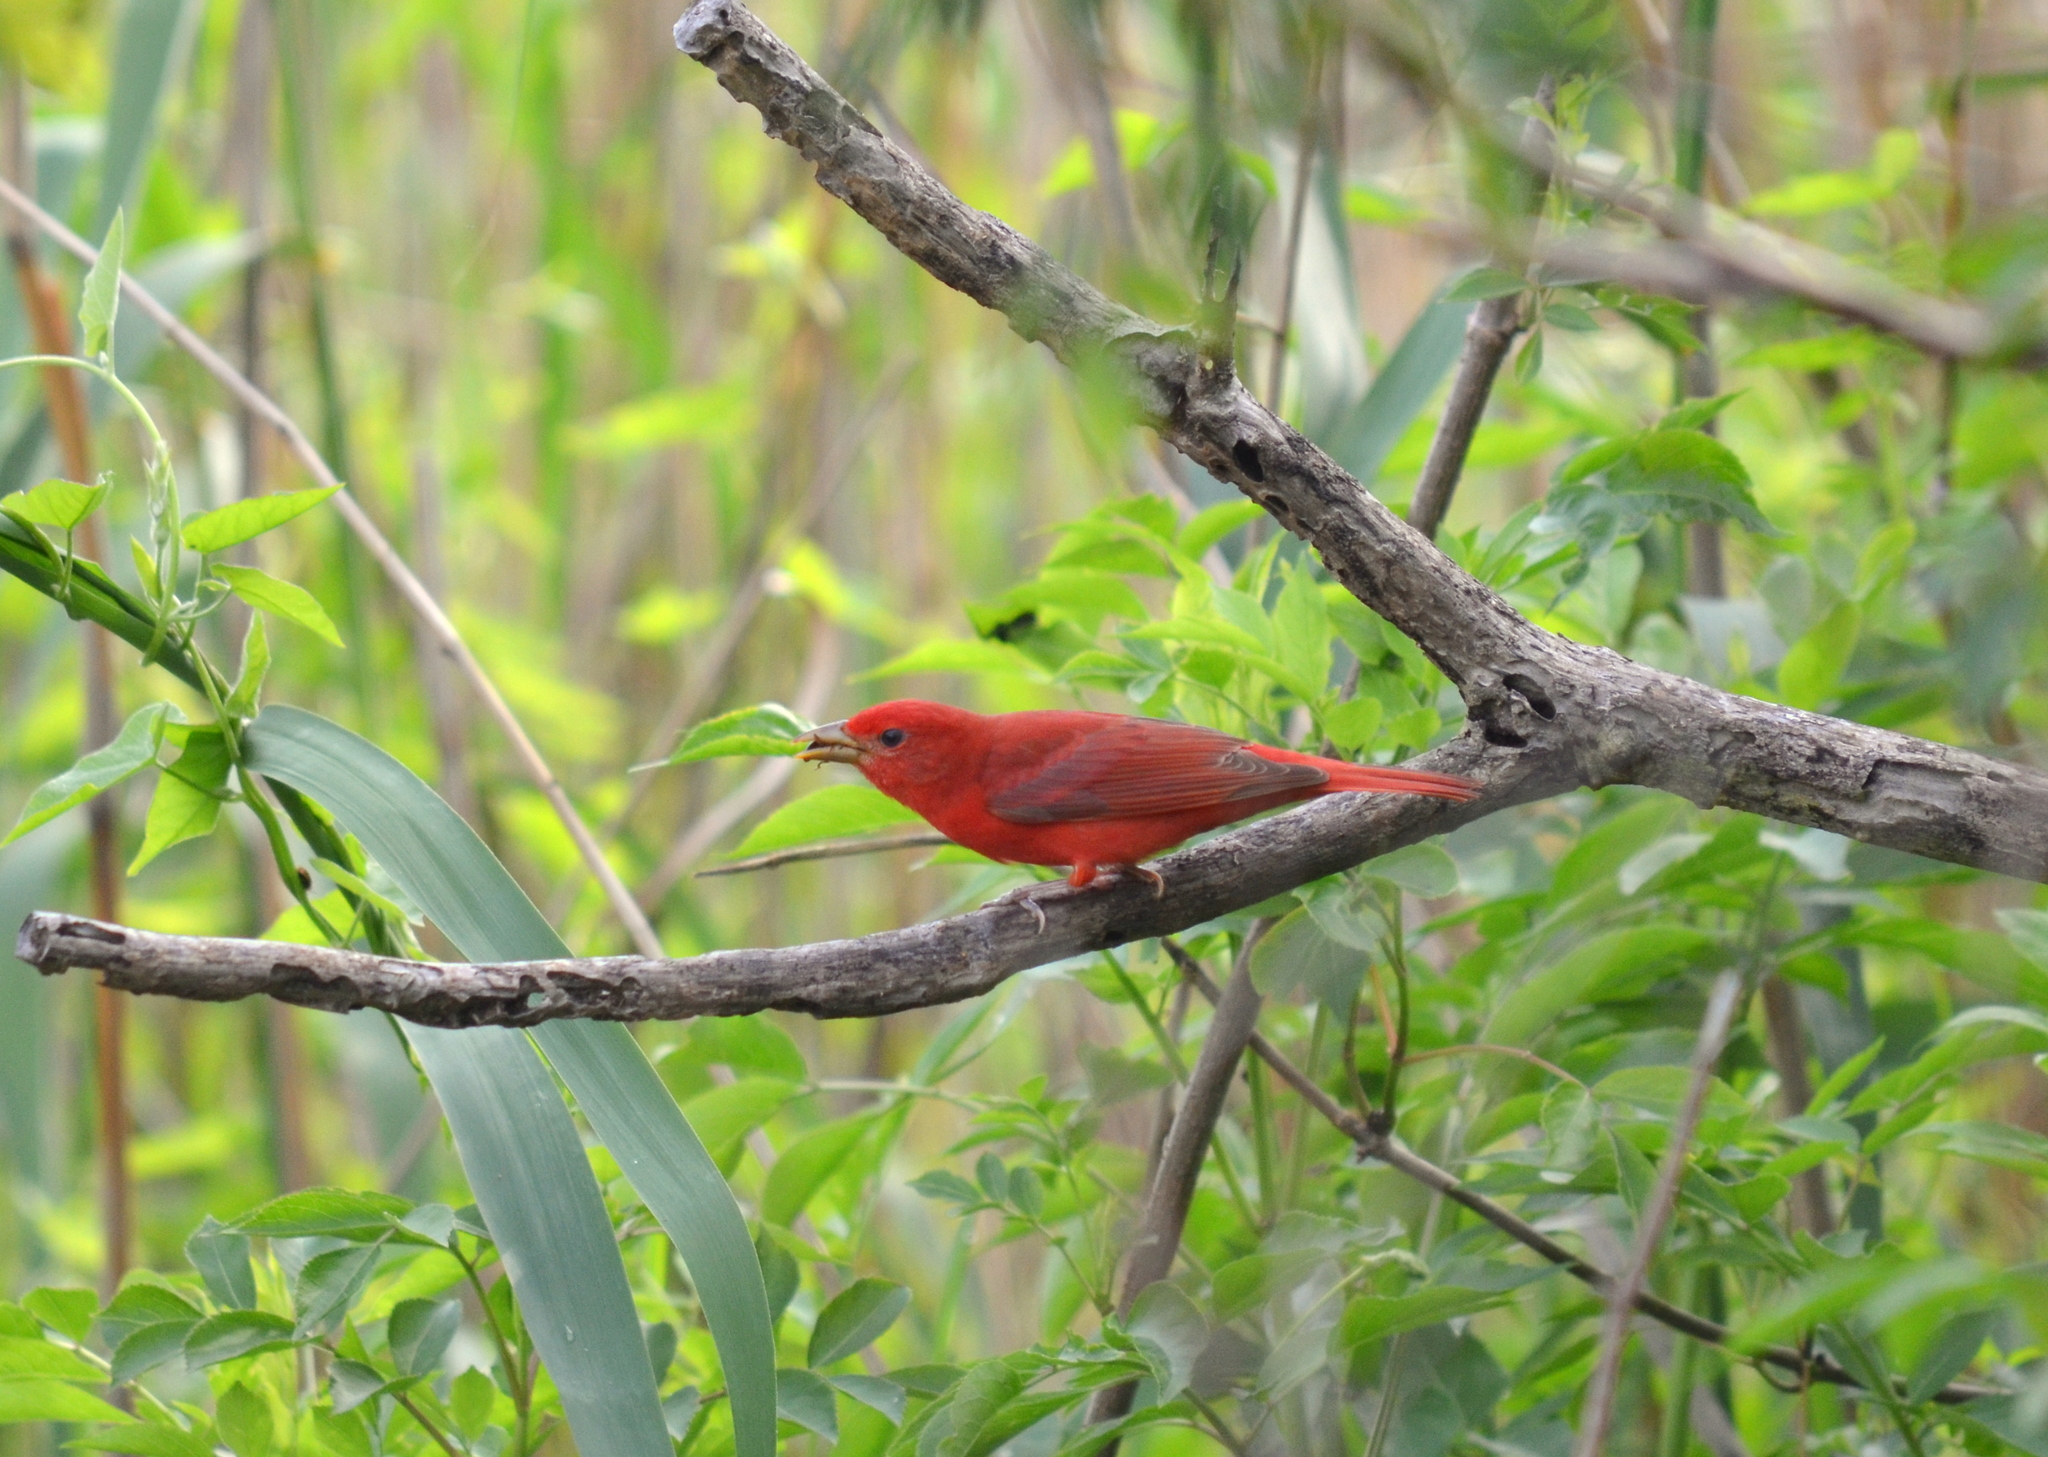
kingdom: Animalia
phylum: Chordata
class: Aves
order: Passeriformes
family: Cardinalidae
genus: Piranga
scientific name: Piranga rubra
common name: Summer tanager
